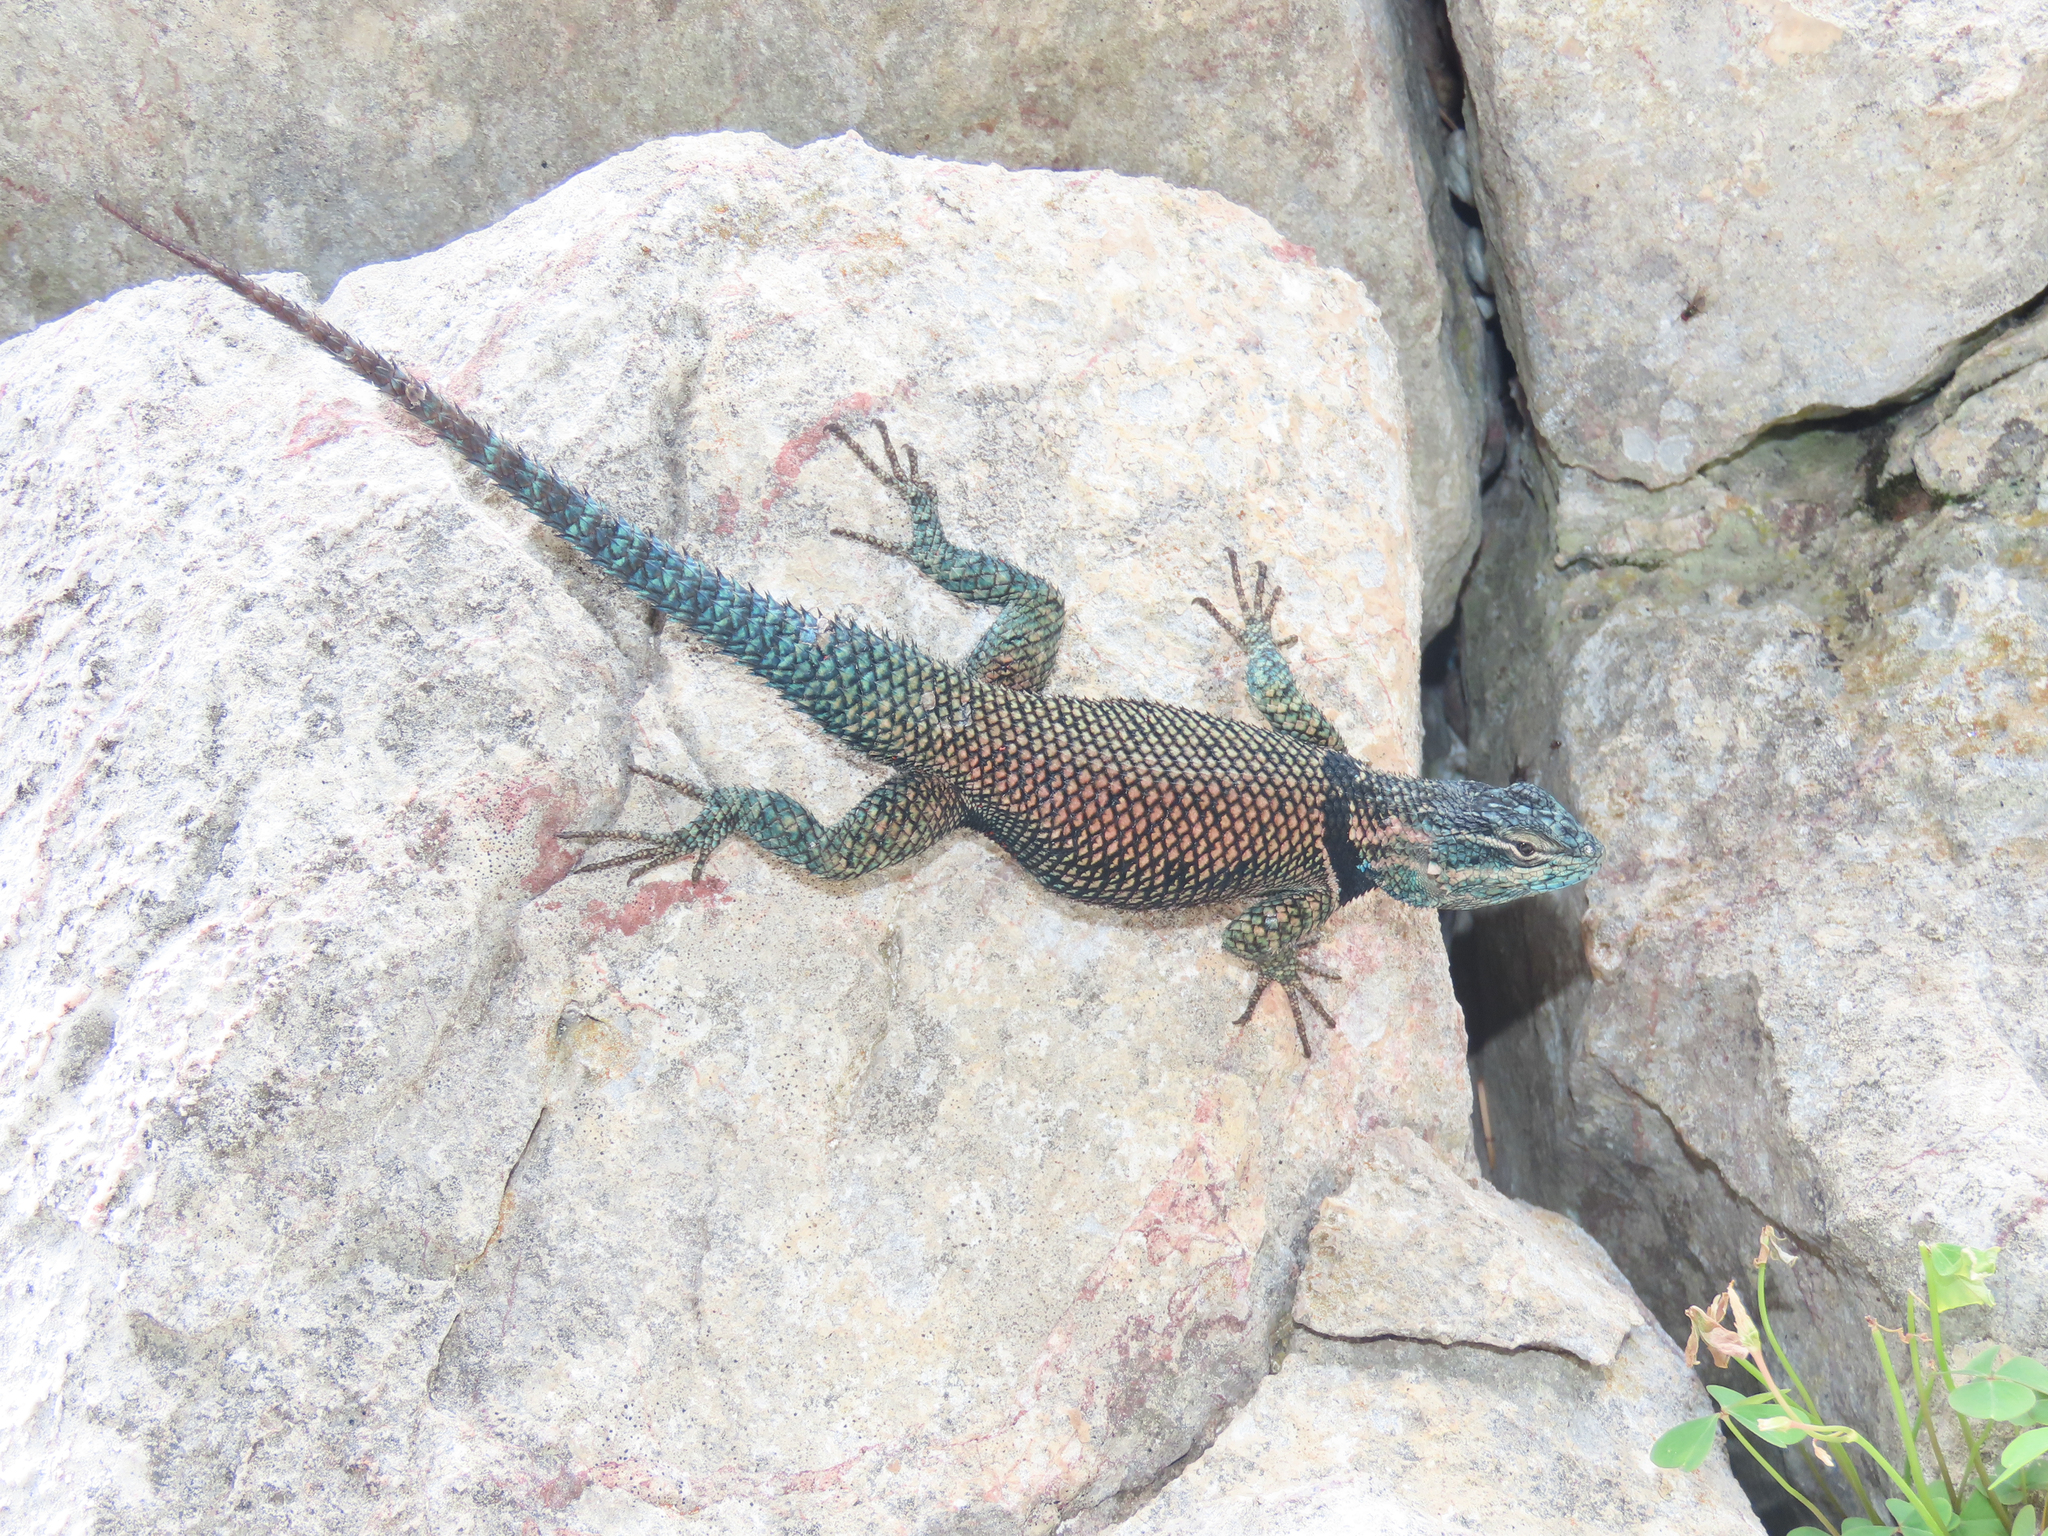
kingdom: Animalia
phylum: Chordata
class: Squamata
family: Phrynosomatidae
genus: Sceloporus
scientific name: Sceloporus jarrovii
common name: Yarrow's spiny lizard
